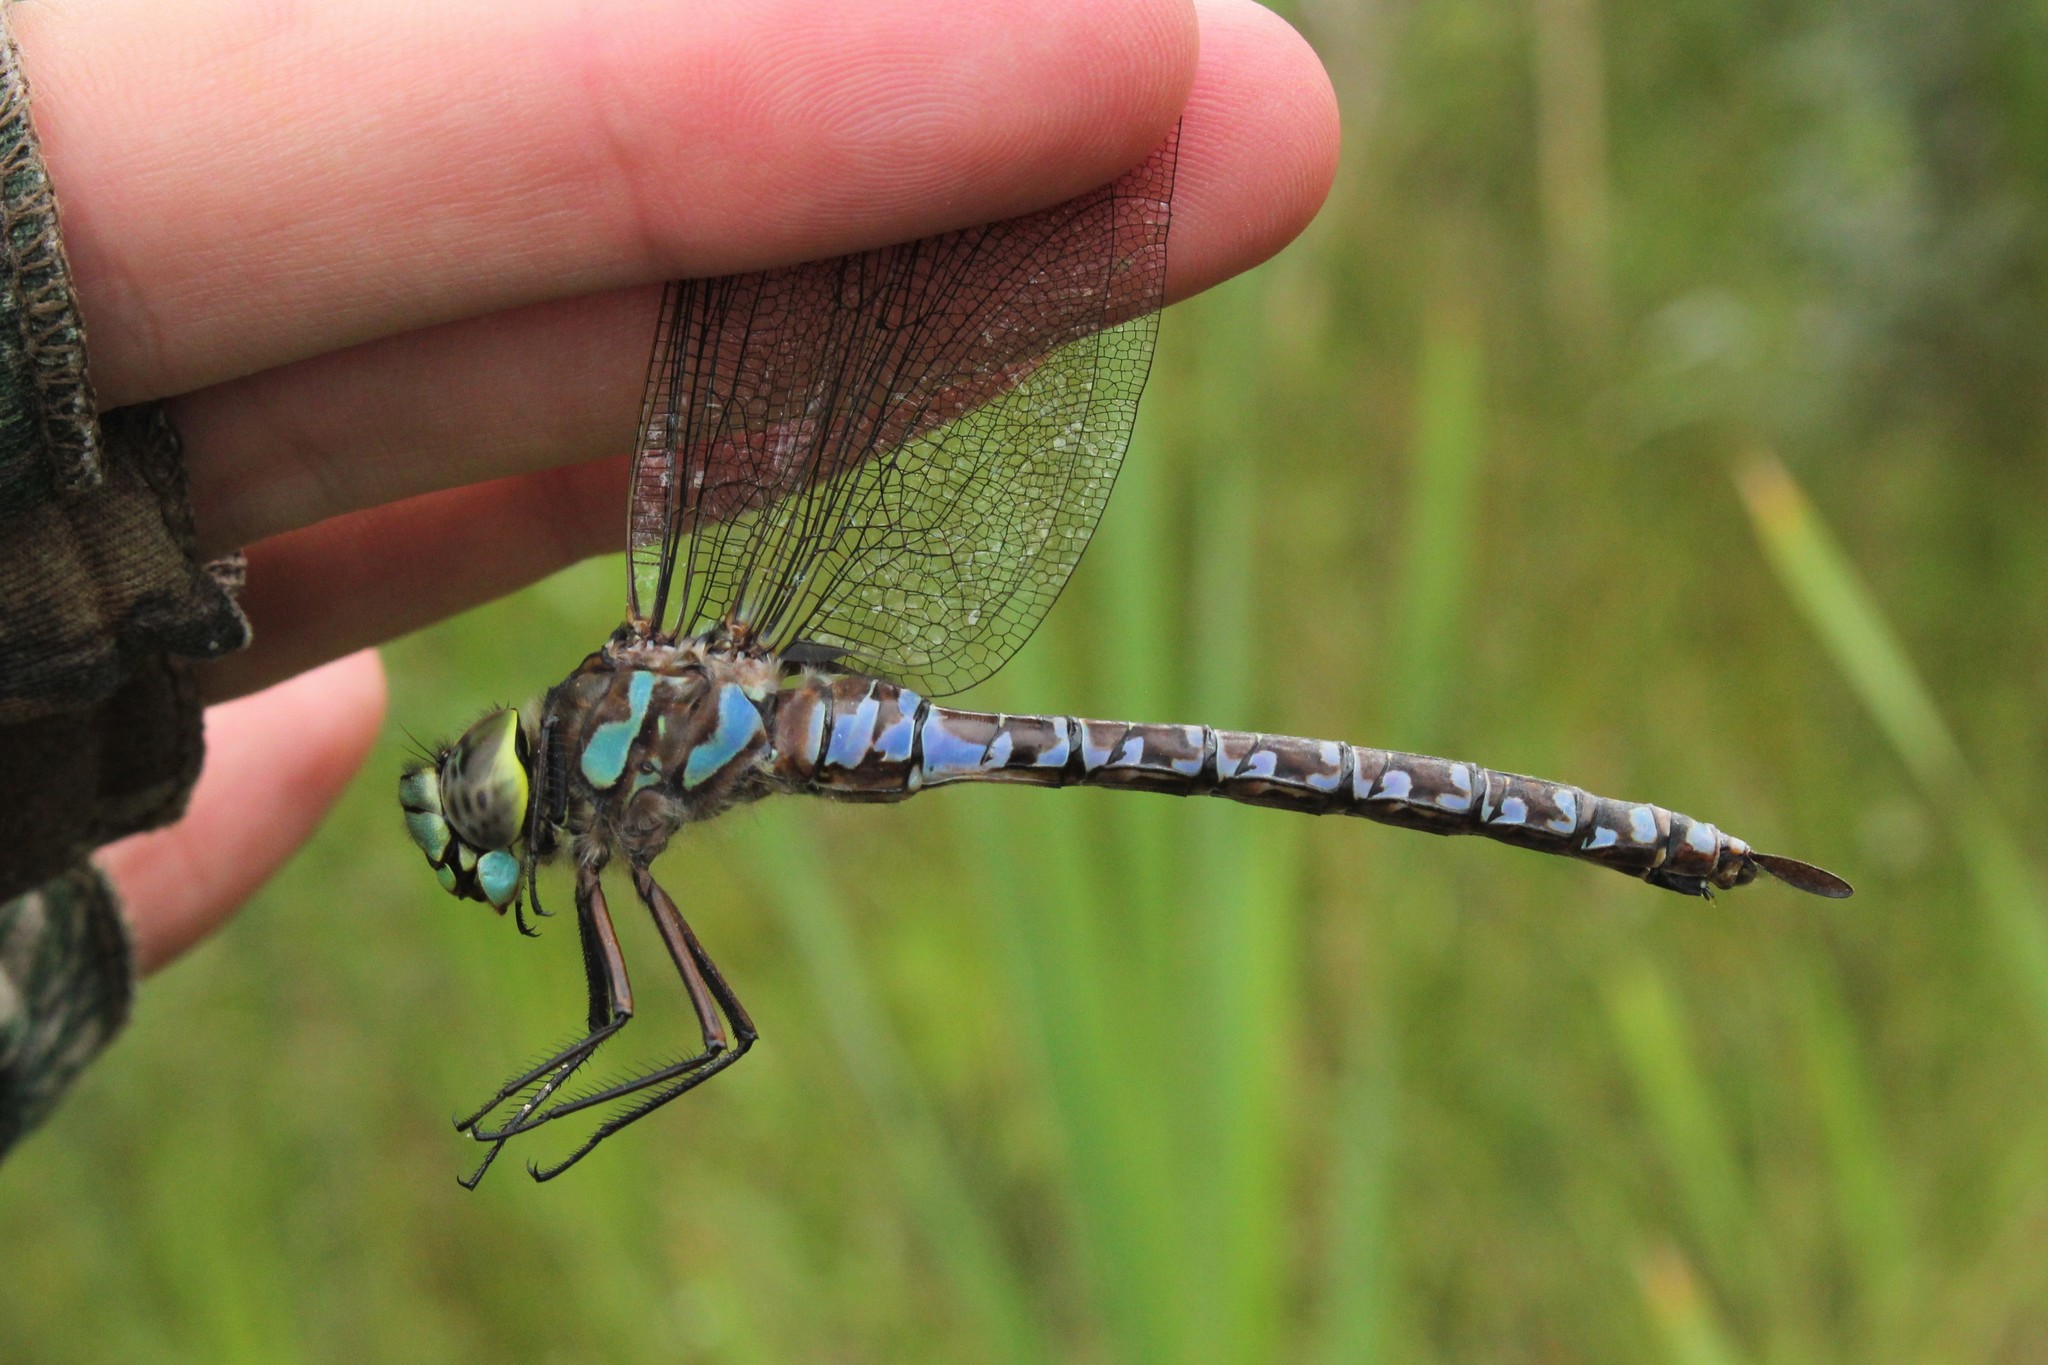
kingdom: Animalia
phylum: Arthropoda
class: Insecta
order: Odonata
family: Aeshnidae
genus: Aeshna
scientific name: Aeshna eremita
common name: Lake darner
